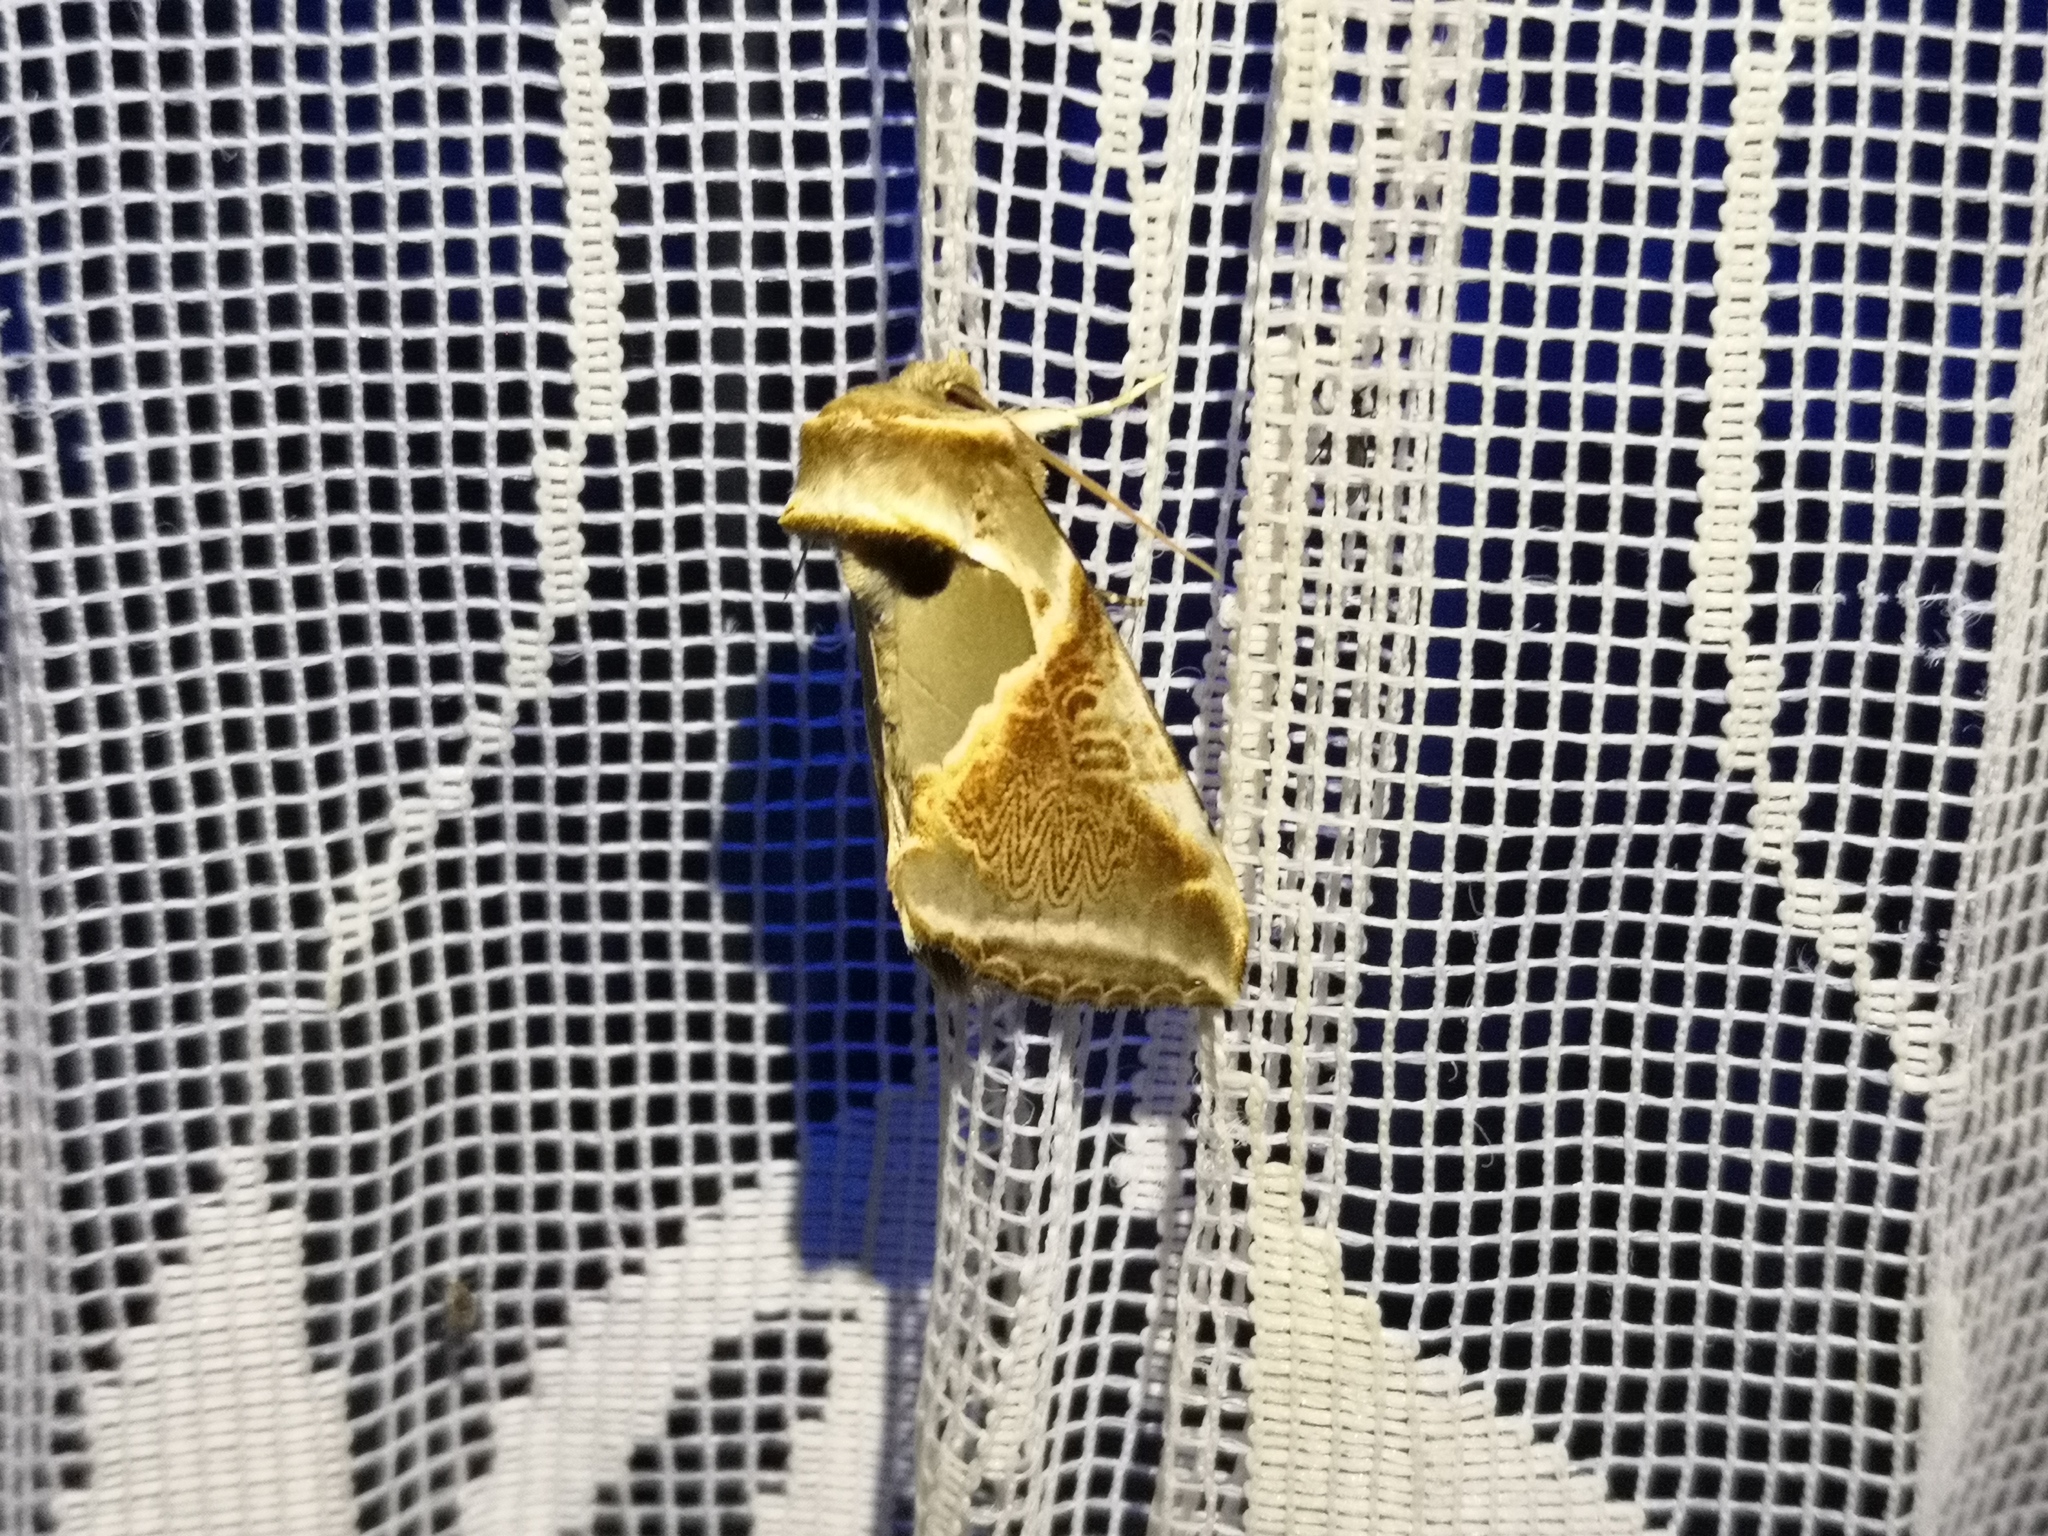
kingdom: Animalia
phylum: Arthropoda
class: Insecta
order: Lepidoptera
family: Drepanidae
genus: Habrosyne
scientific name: Habrosyne pyritoides
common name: Buff arches
